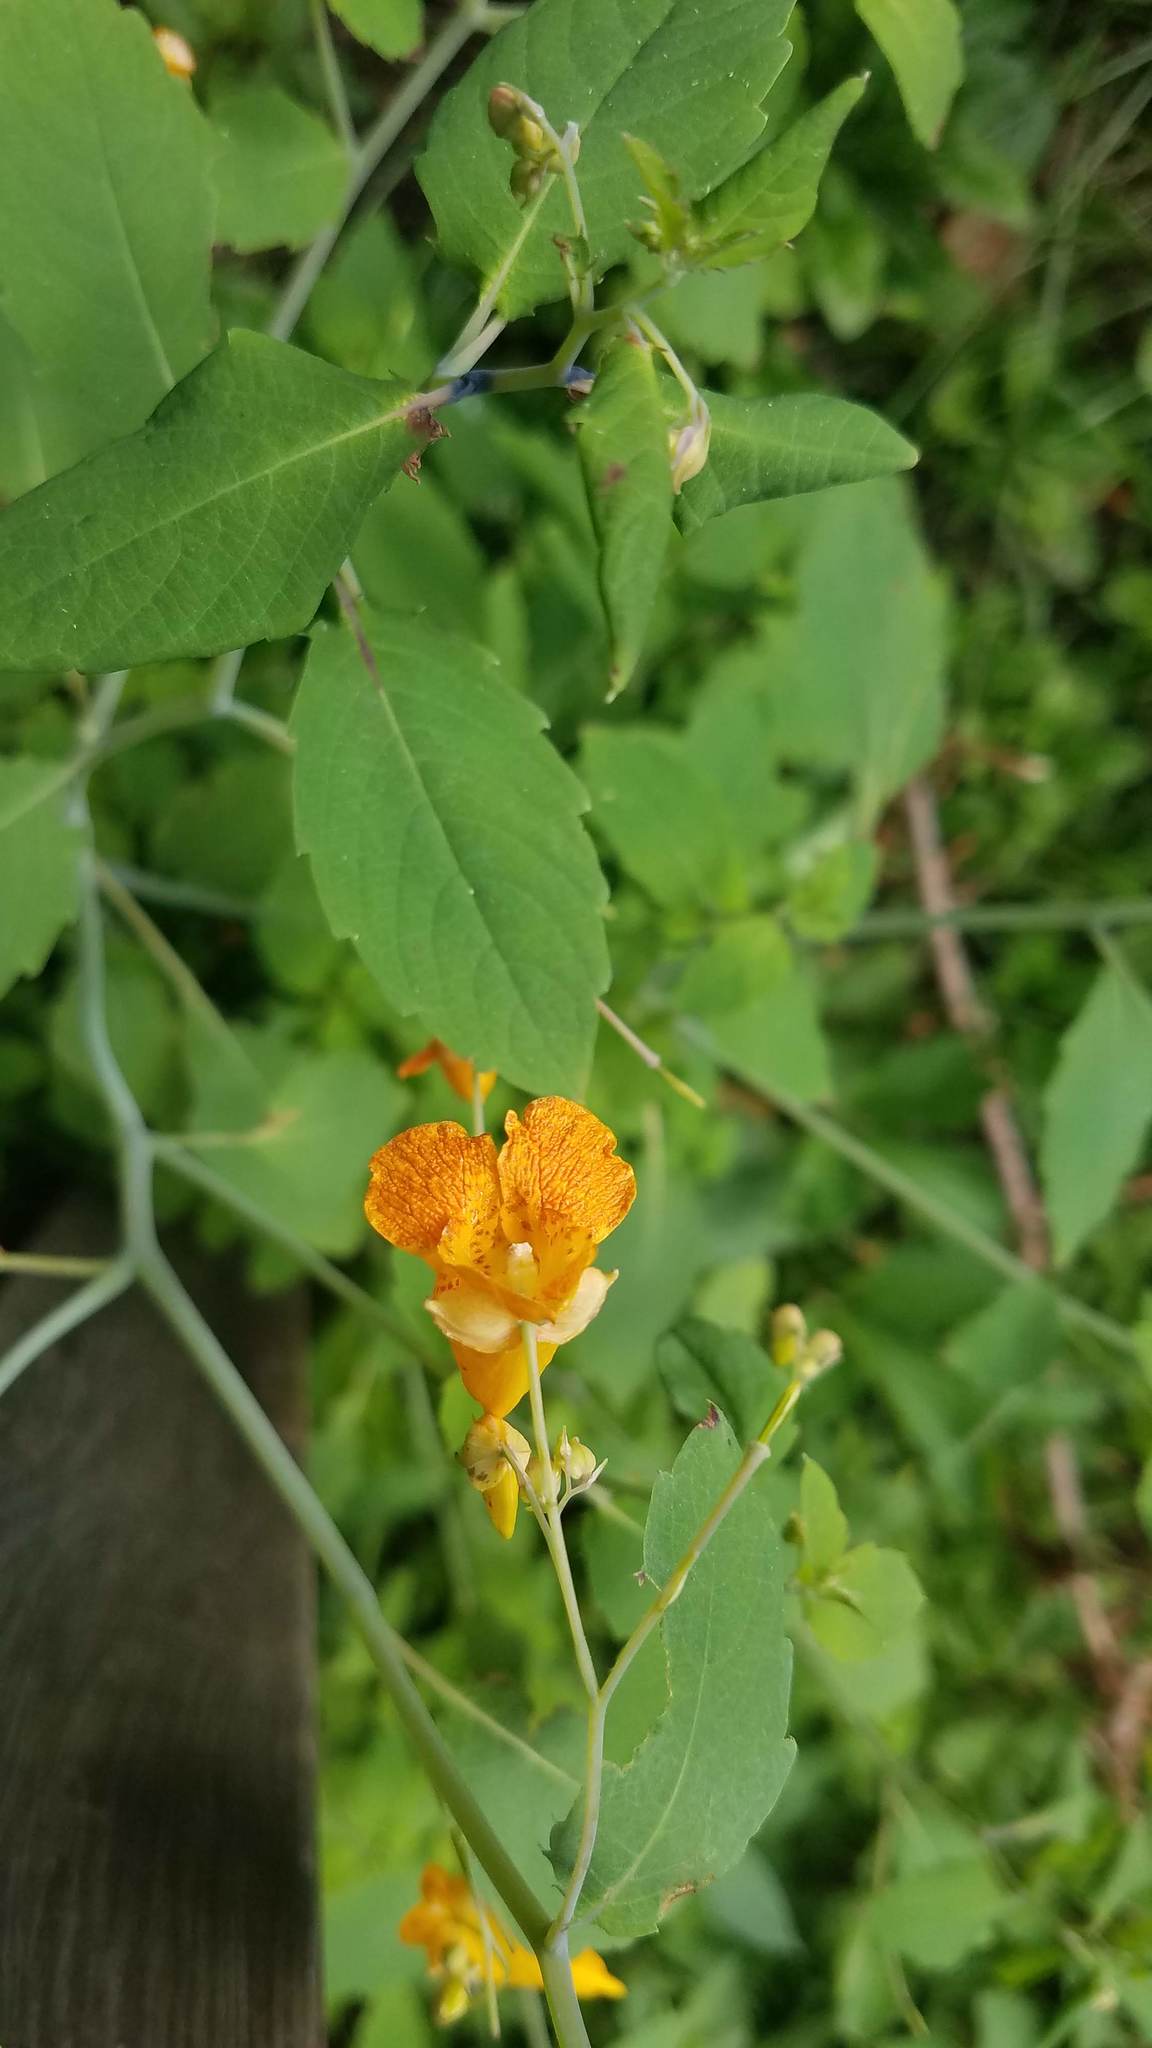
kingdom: Plantae
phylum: Tracheophyta
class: Magnoliopsida
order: Ericales
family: Balsaminaceae
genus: Impatiens
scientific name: Impatiens capensis
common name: Orange balsam
